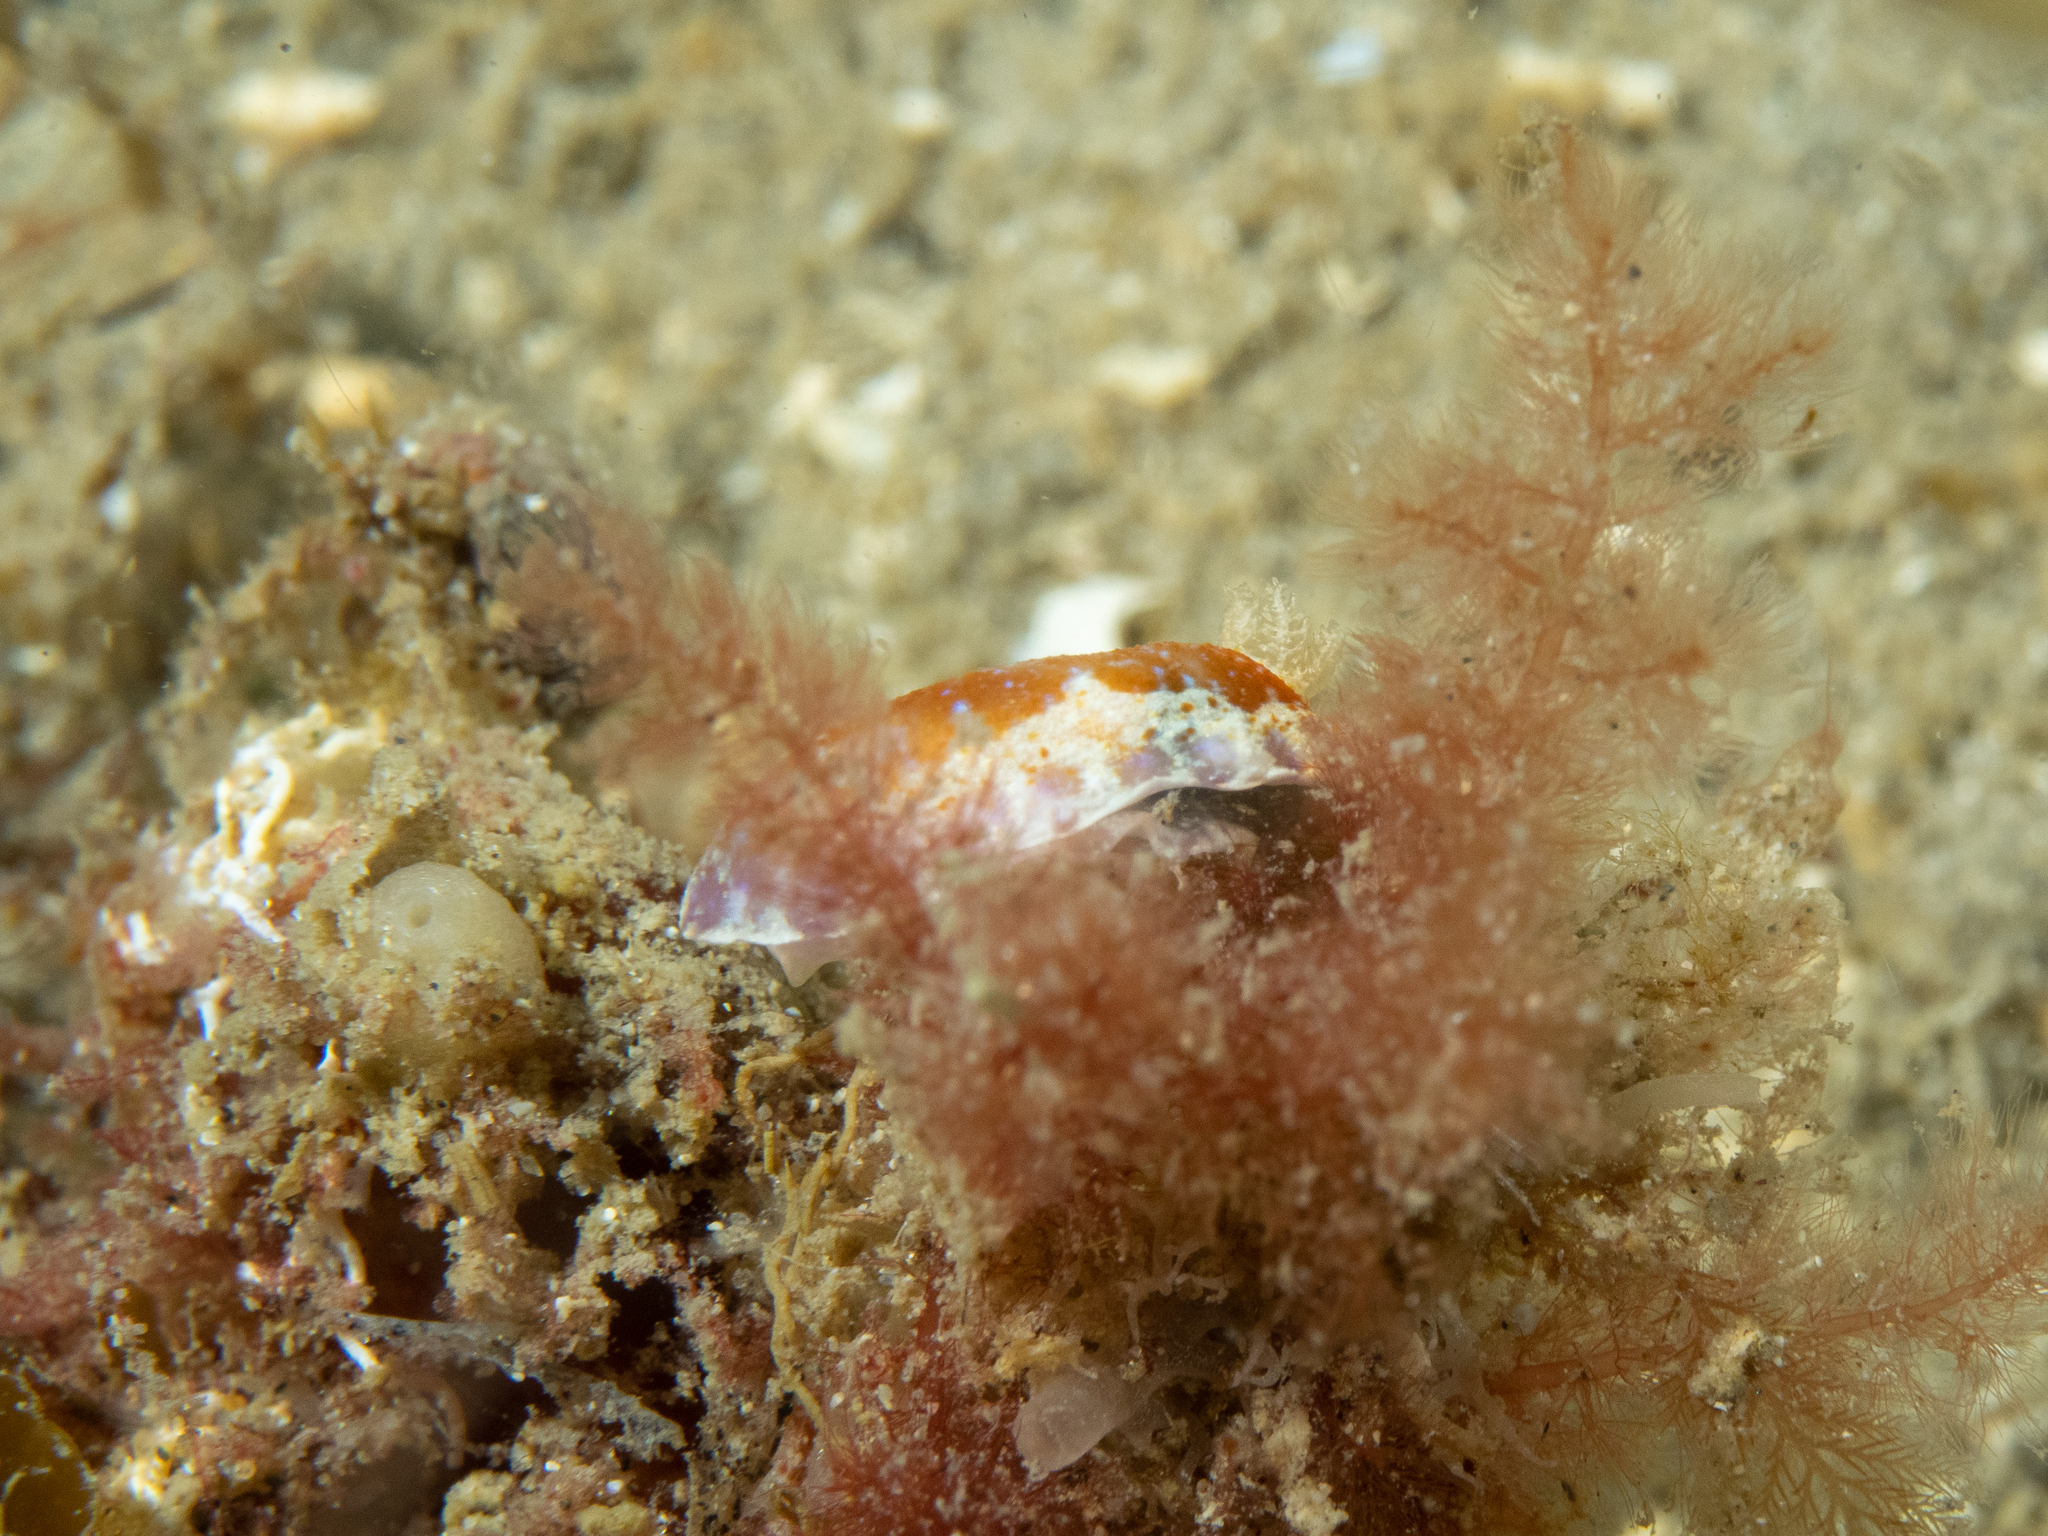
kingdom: Animalia
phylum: Mollusca
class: Gastropoda
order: Nudibranchia
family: Chromodorididae
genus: Chromodoris
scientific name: Chromodoris alternata
